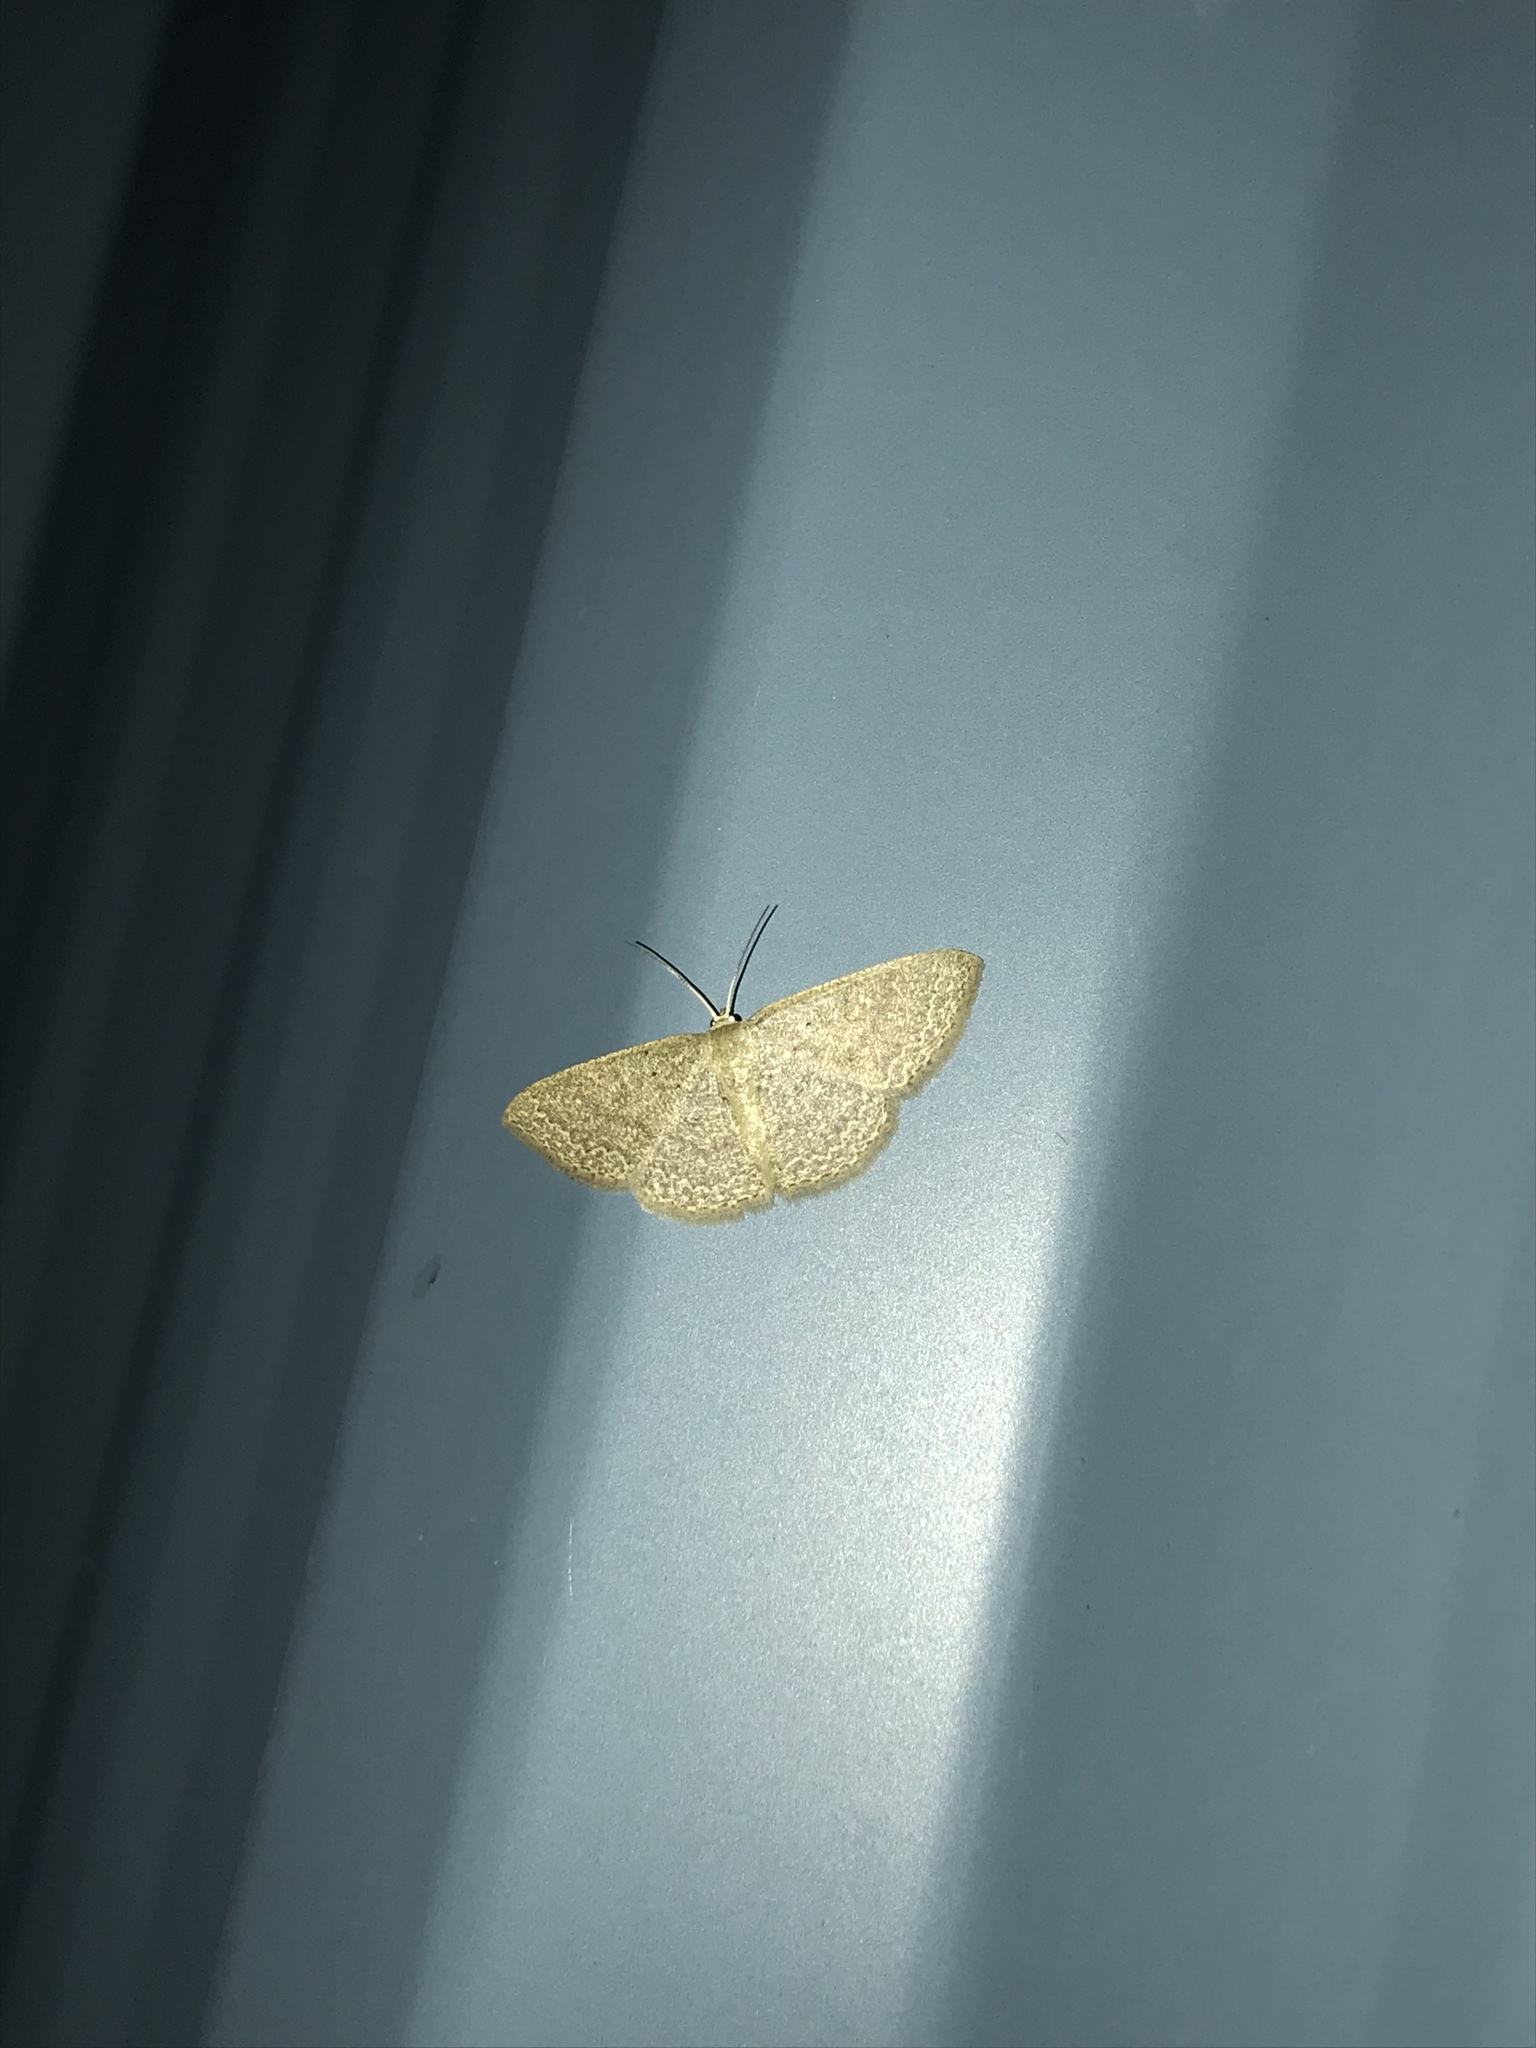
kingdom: Animalia
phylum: Arthropoda
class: Insecta
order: Lepidoptera
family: Geometridae
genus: Pleuroprucha
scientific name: Pleuroprucha insulsaria
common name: Common tan wave
